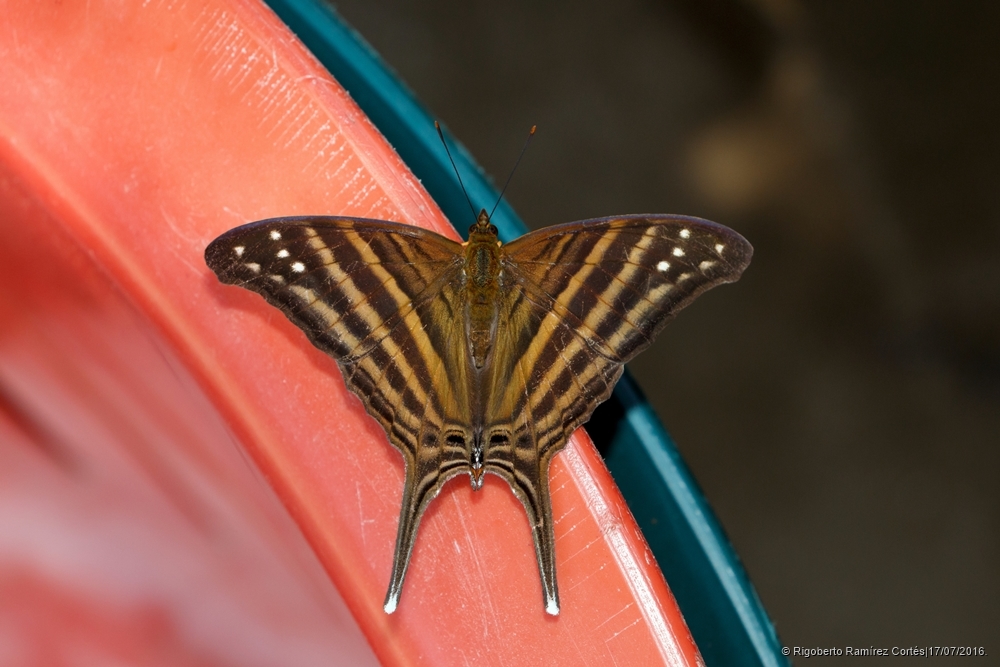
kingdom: Animalia
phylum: Arthropoda
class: Insecta
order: Lepidoptera
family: Nymphalidae
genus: Marpesia
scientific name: Marpesia chiron
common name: Many-banded daggerwing
